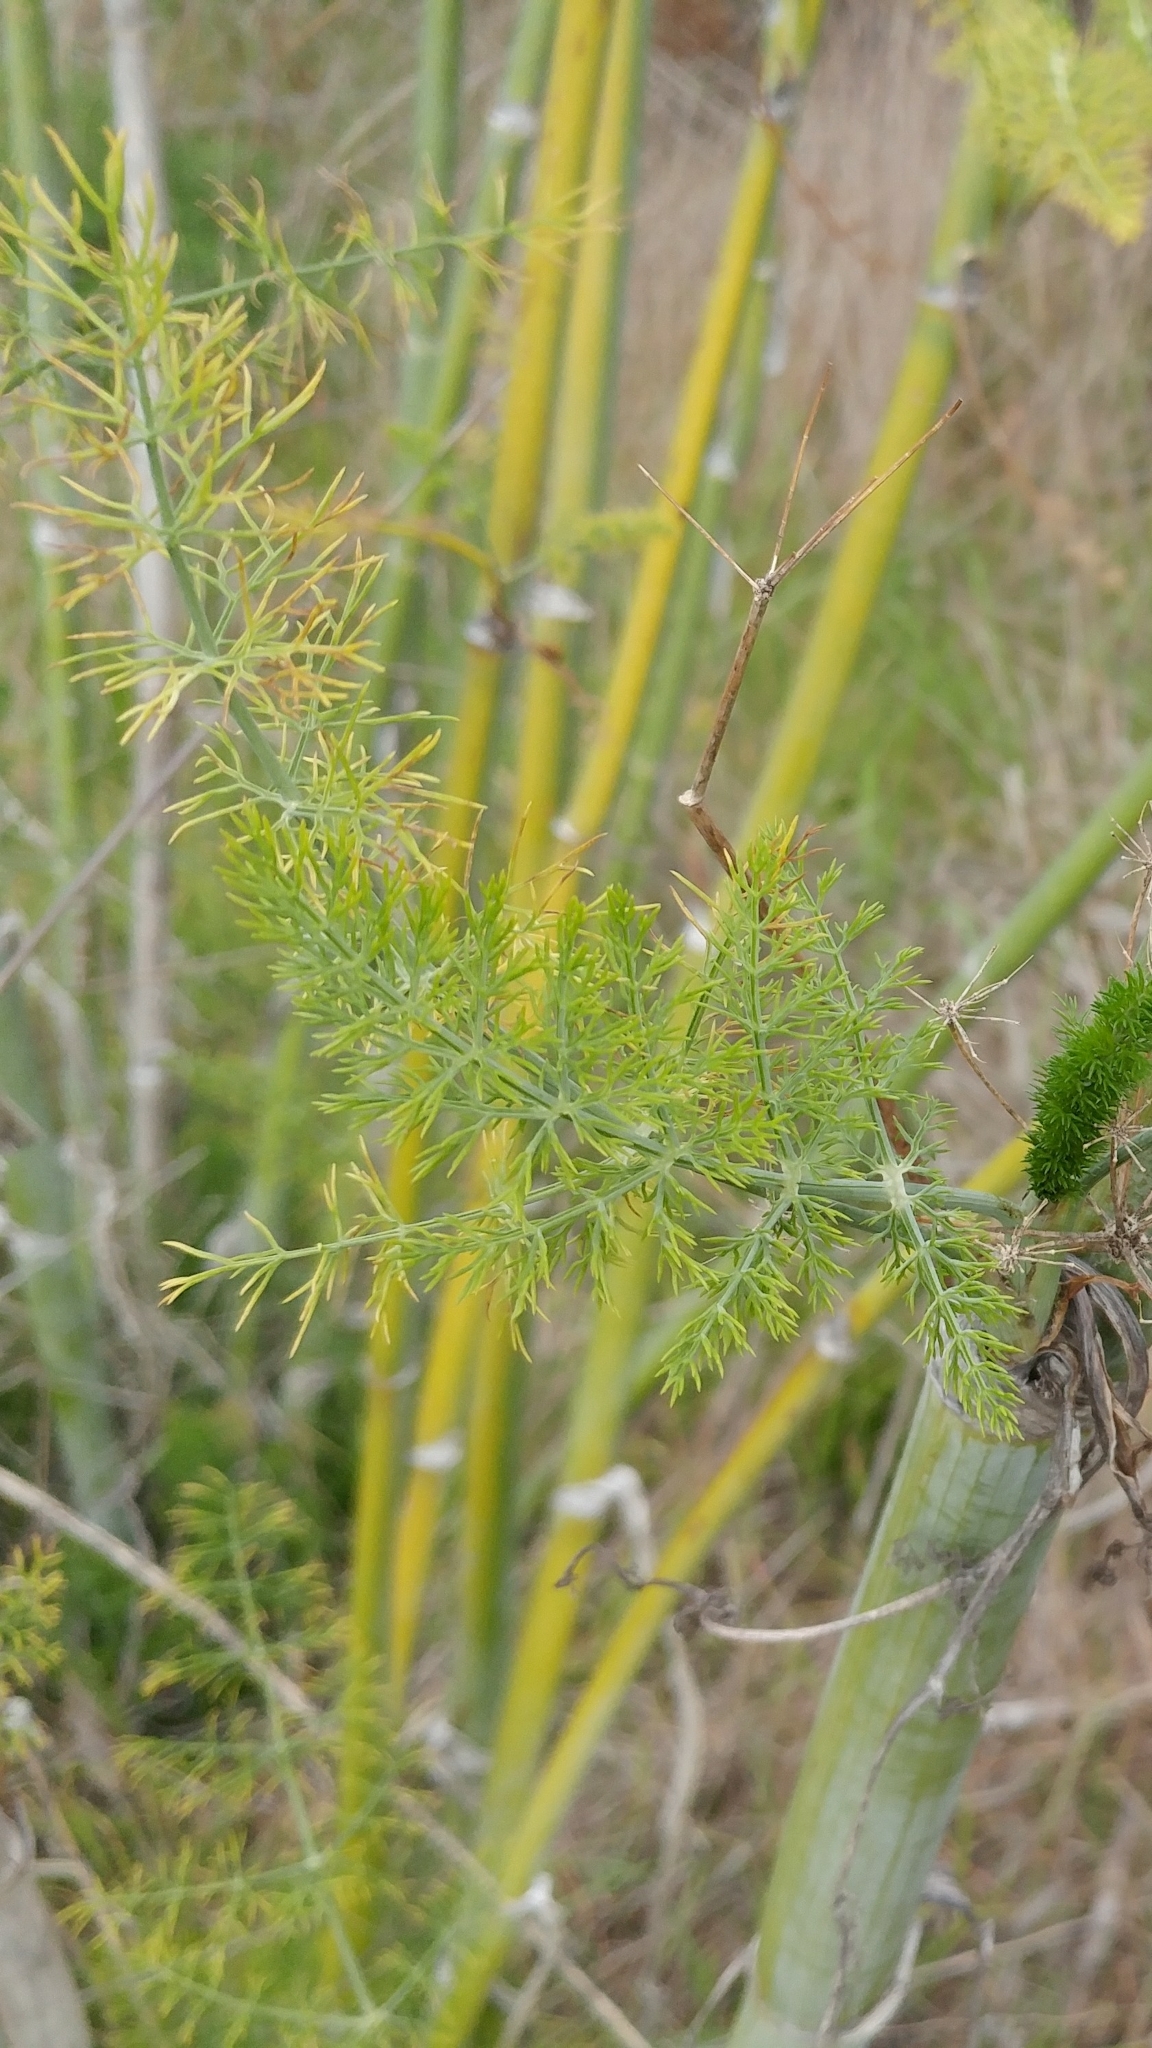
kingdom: Plantae
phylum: Tracheophyta
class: Magnoliopsida
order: Apiales
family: Apiaceae
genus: Foeniculum
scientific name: Foeniculum vulgare
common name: Fennel
